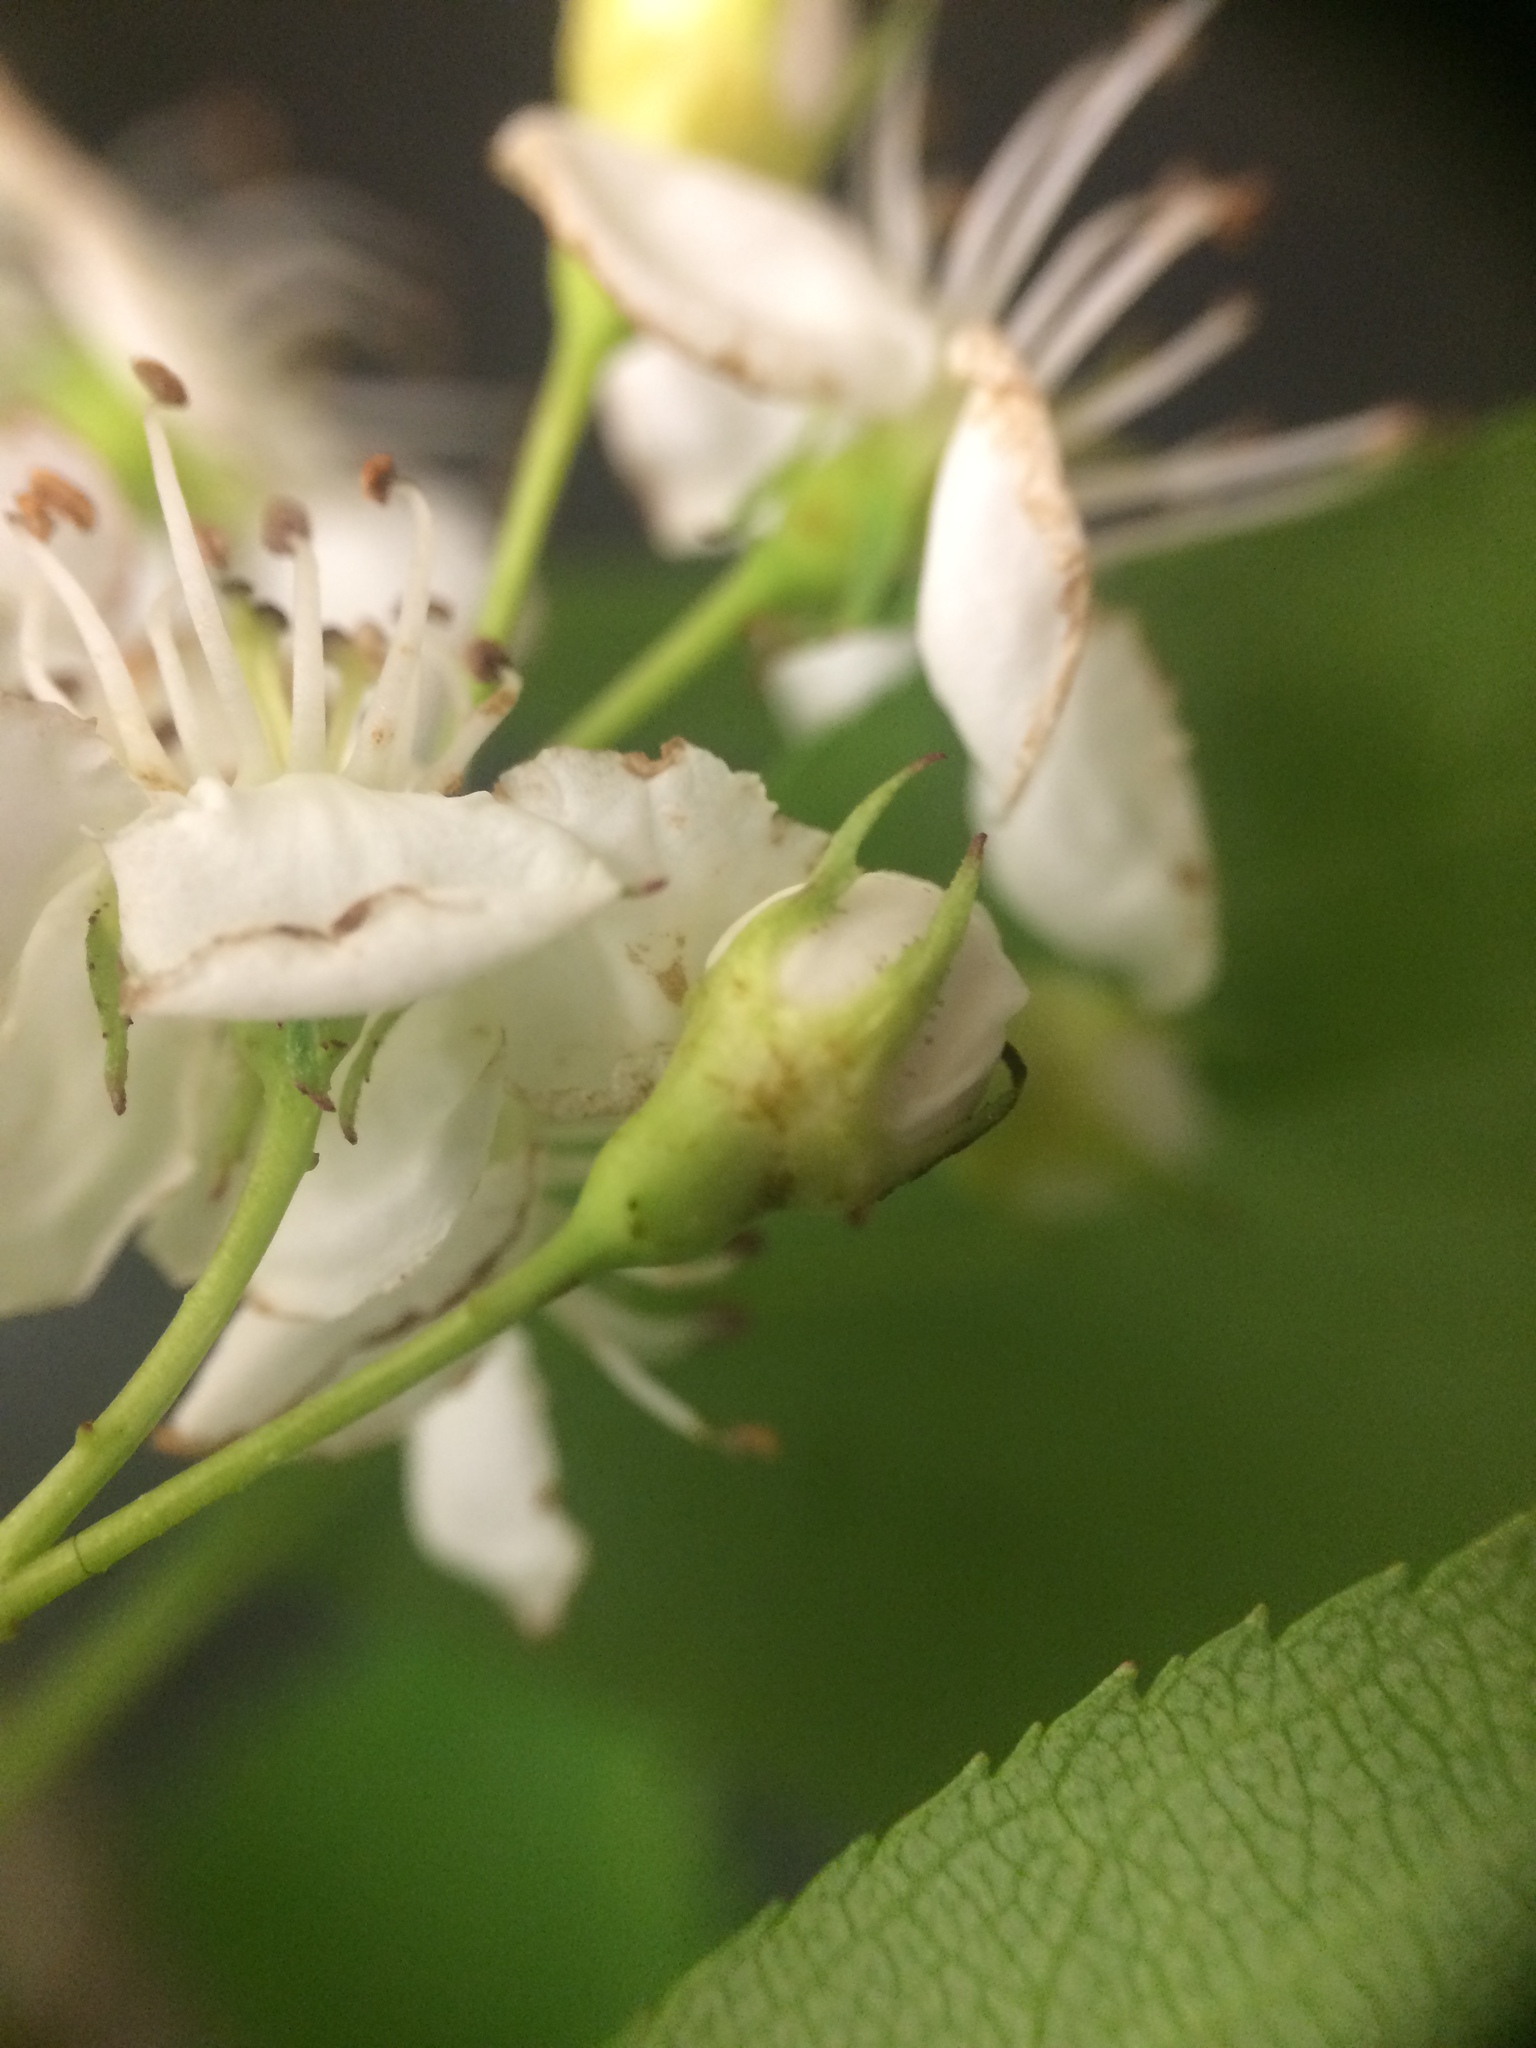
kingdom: Plantae
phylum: Tracheophyta
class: Magnoliopsida
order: Rosales
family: Rosaceae
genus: Crataegus
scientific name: Crataegus scabrida
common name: Rough hawthorn
